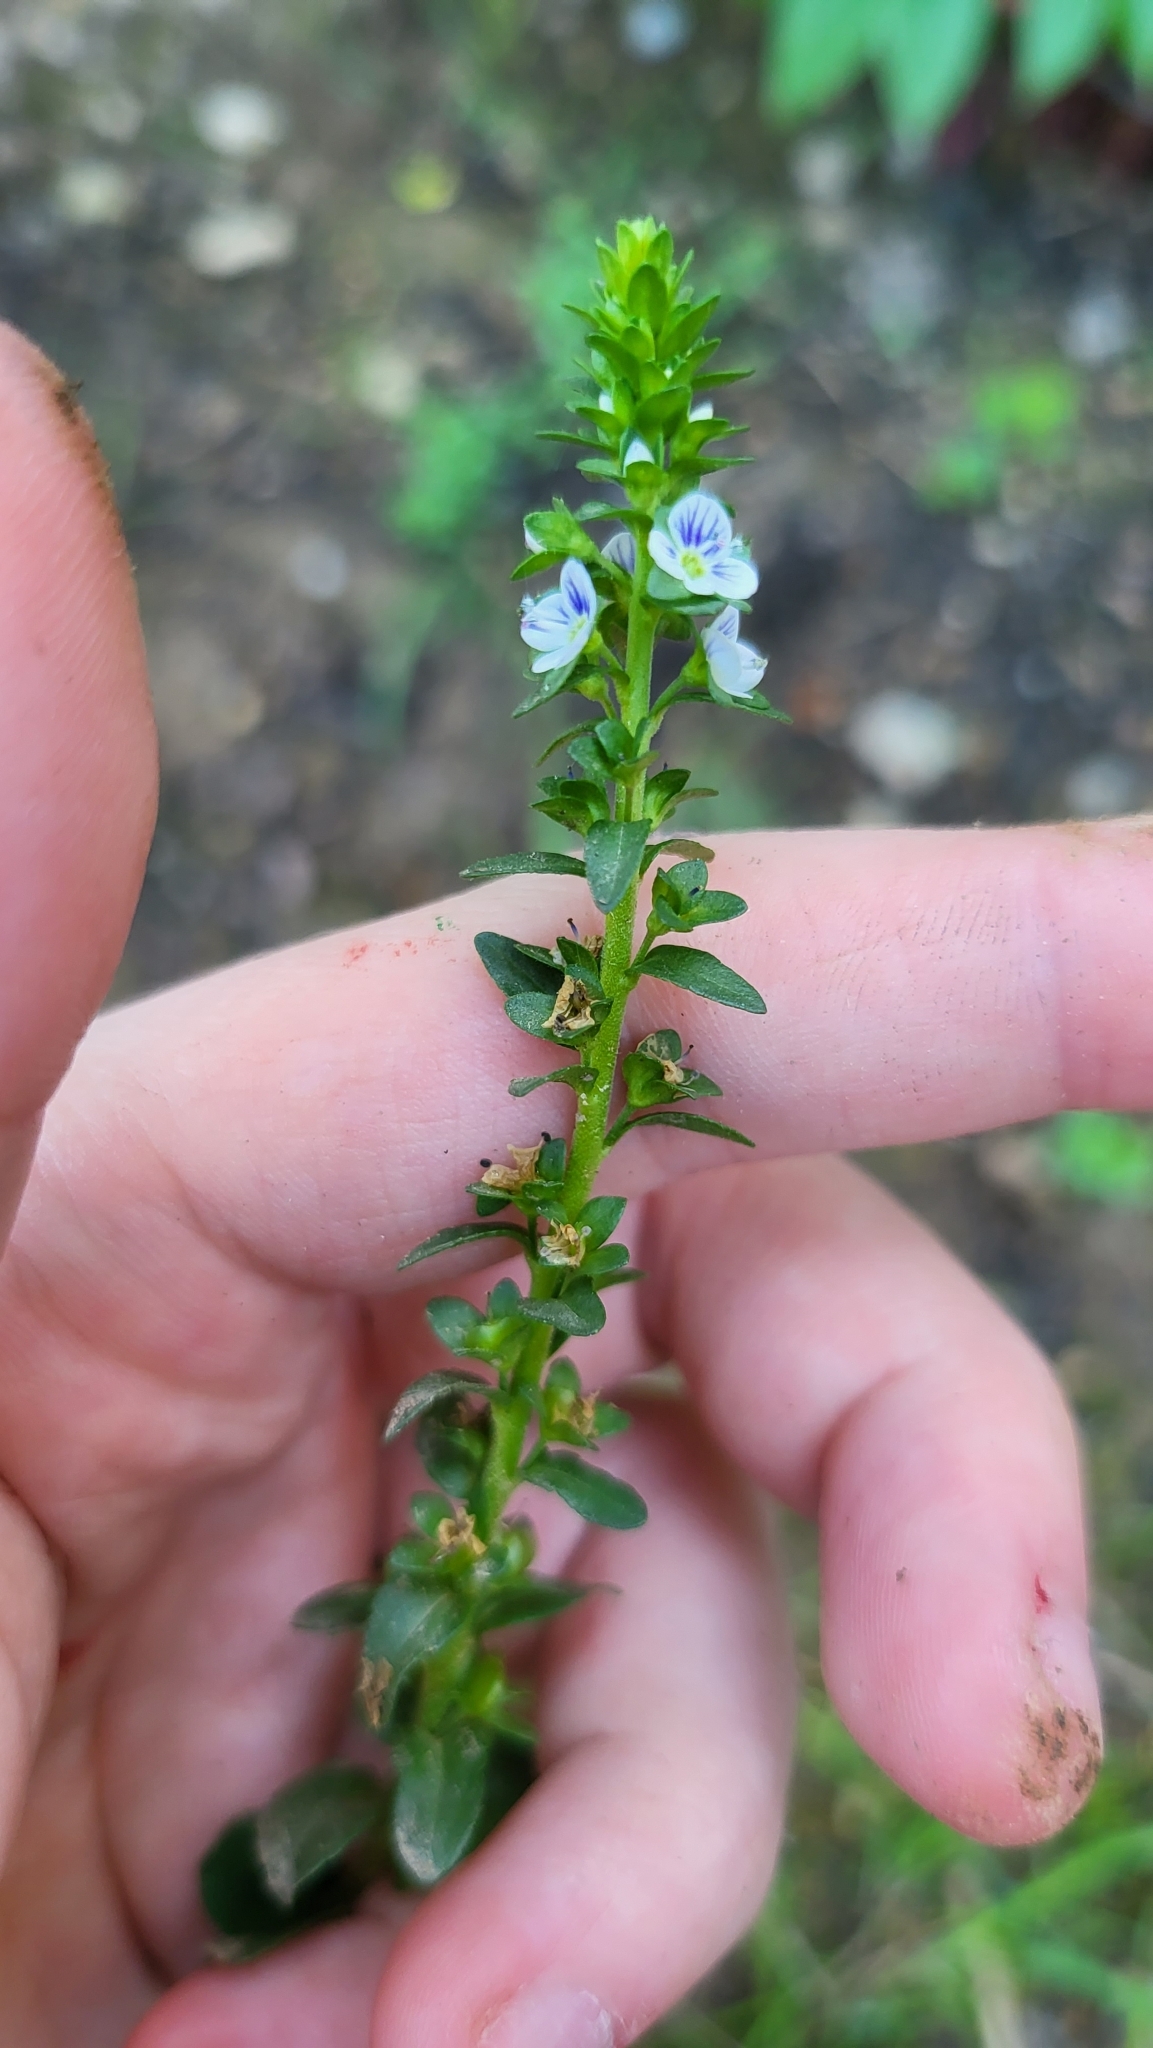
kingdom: Plantae
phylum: Tracheophyta
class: Magnoliopsida
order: Lamiales
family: Plantaginaceae
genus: Veronica
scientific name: Veronica serpyllifolia
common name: Thyme-leaved speedwell
